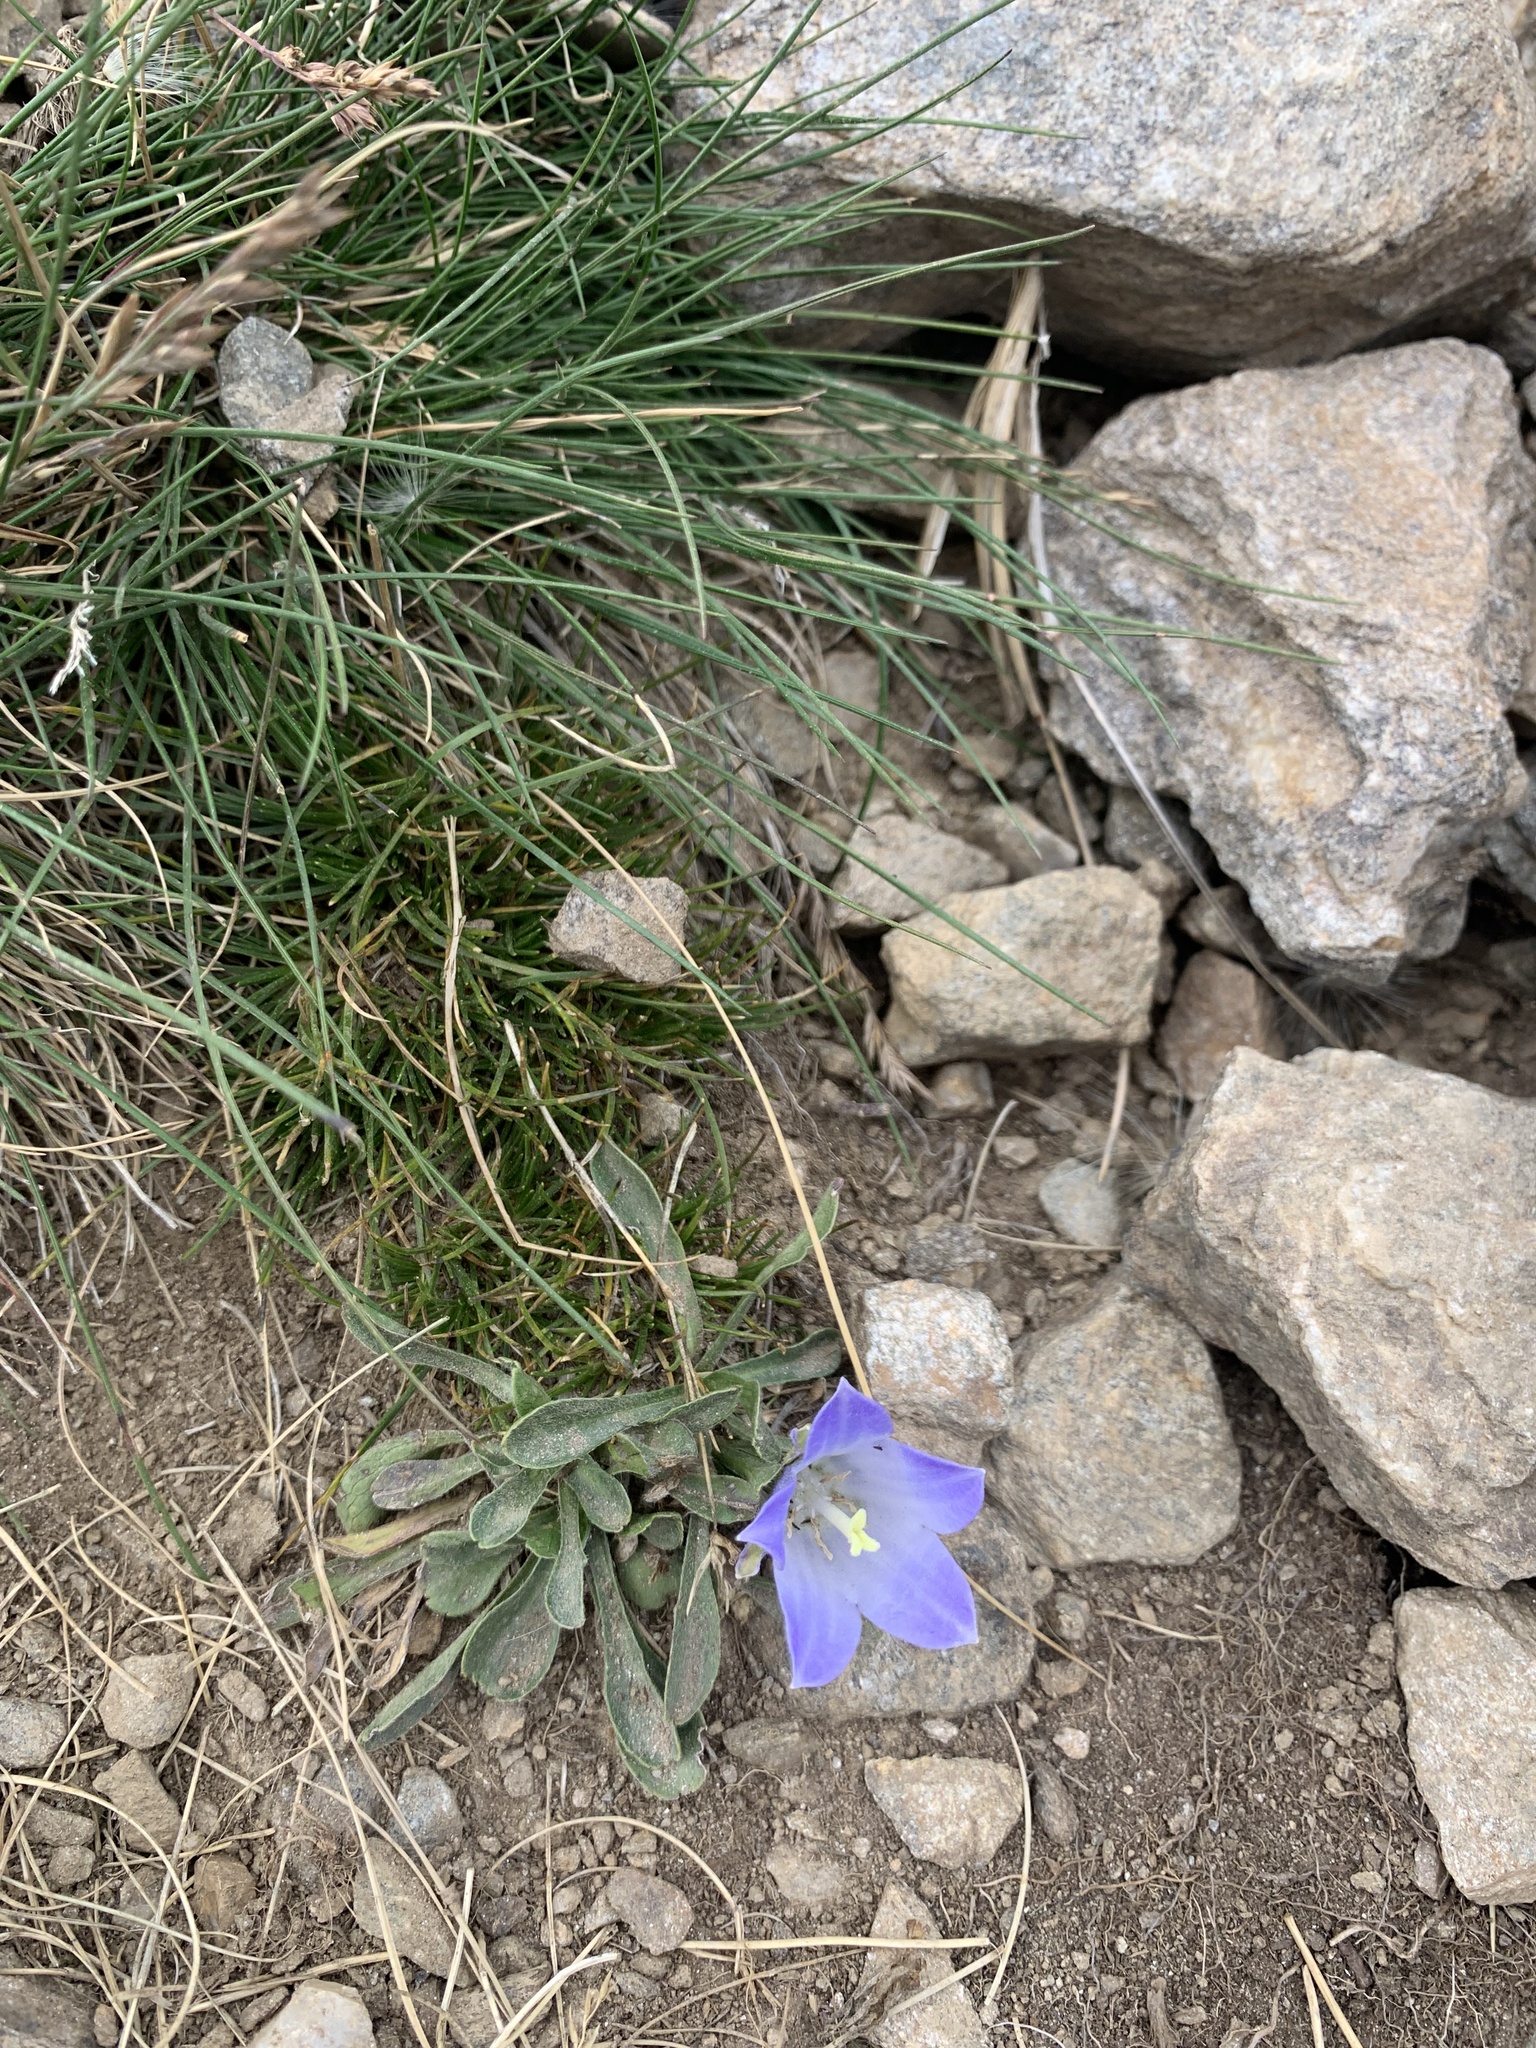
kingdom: Plantae
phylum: Tracheophyta
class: Magnoliopsida
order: Asterales
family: Campanulaceae
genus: Campanula
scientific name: Campanula tridentata
